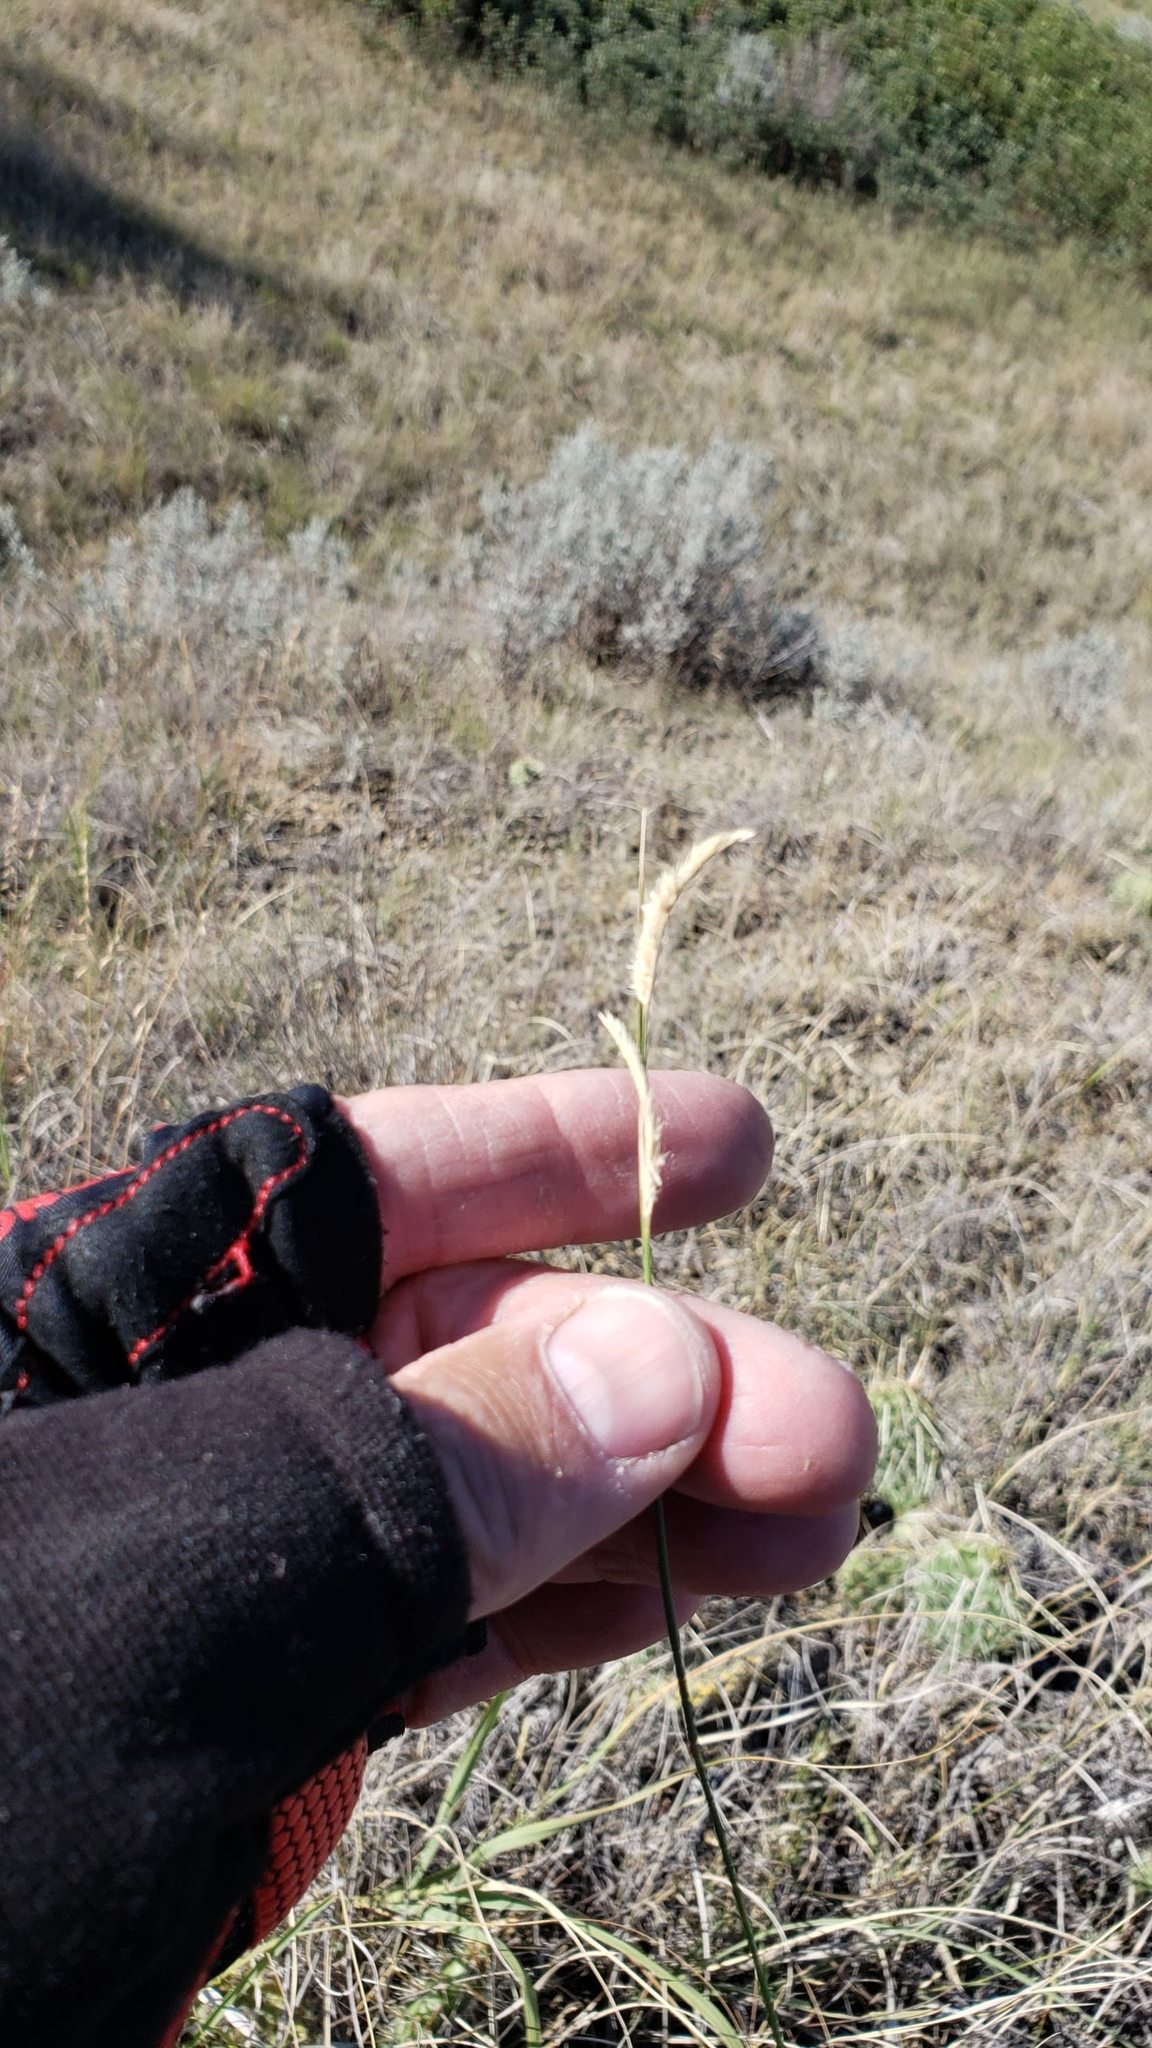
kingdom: Plantae
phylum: Tracheophyta
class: Liliopsida
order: Poales
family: Poaceae
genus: Bouteloua
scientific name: Bouteloua gracilis
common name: Blue grama
